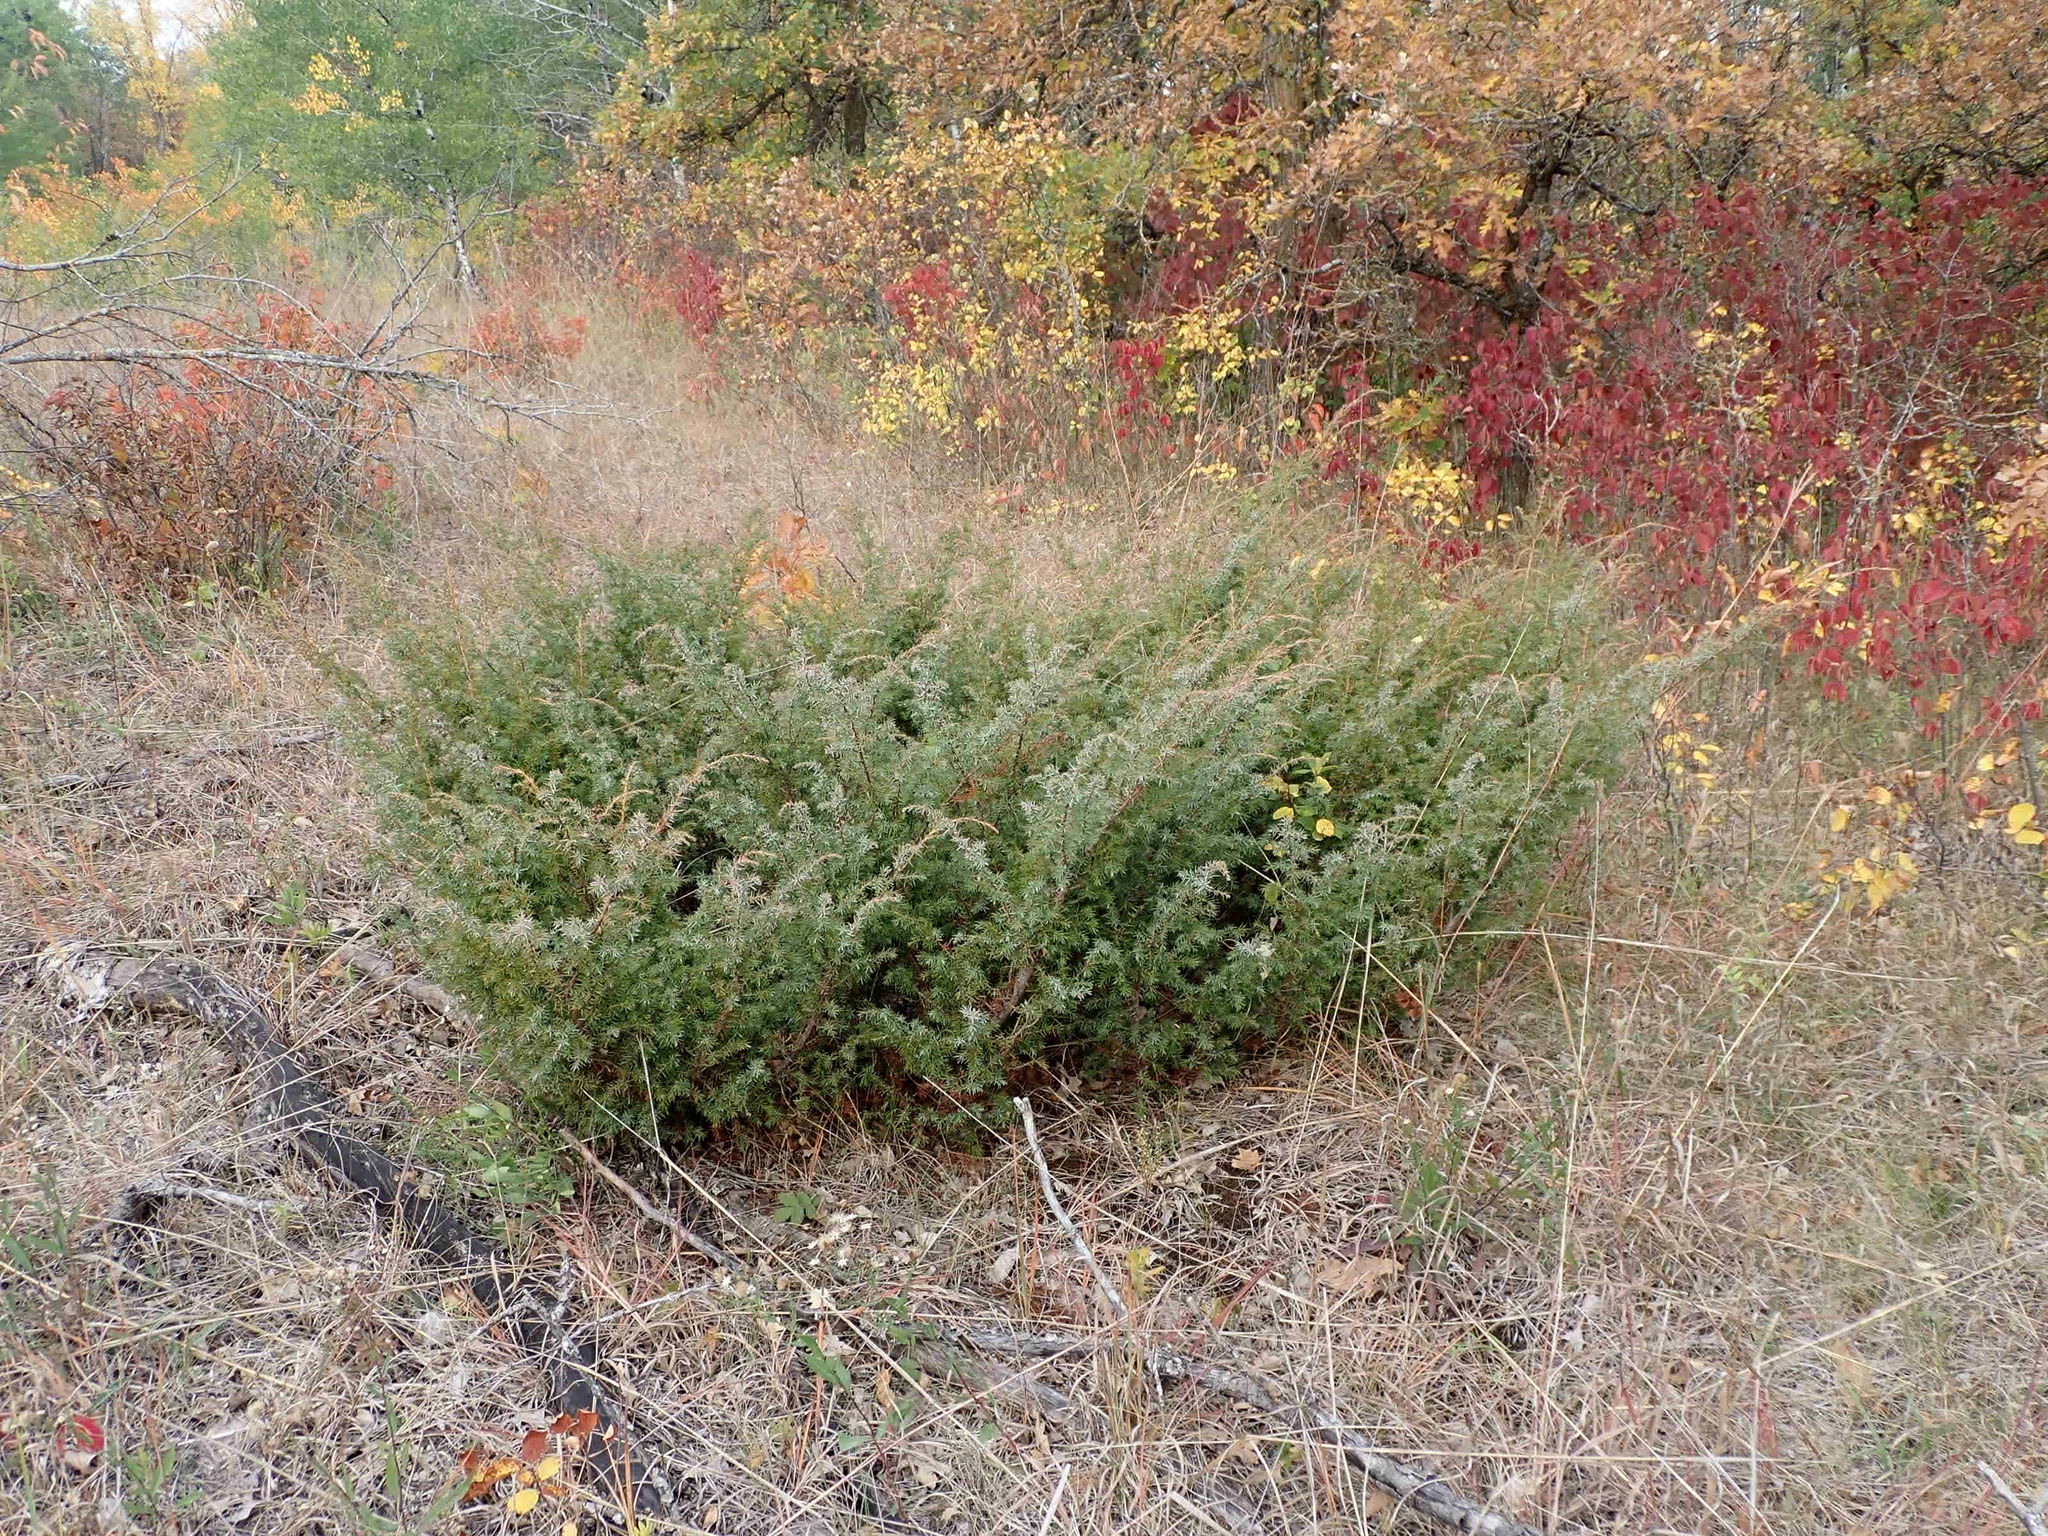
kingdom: Plantae
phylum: Tracheophyta
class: Pinopsida
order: Pinales
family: Cupressaceae
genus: Juniperus
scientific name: Juniperus communis
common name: Common juniper
